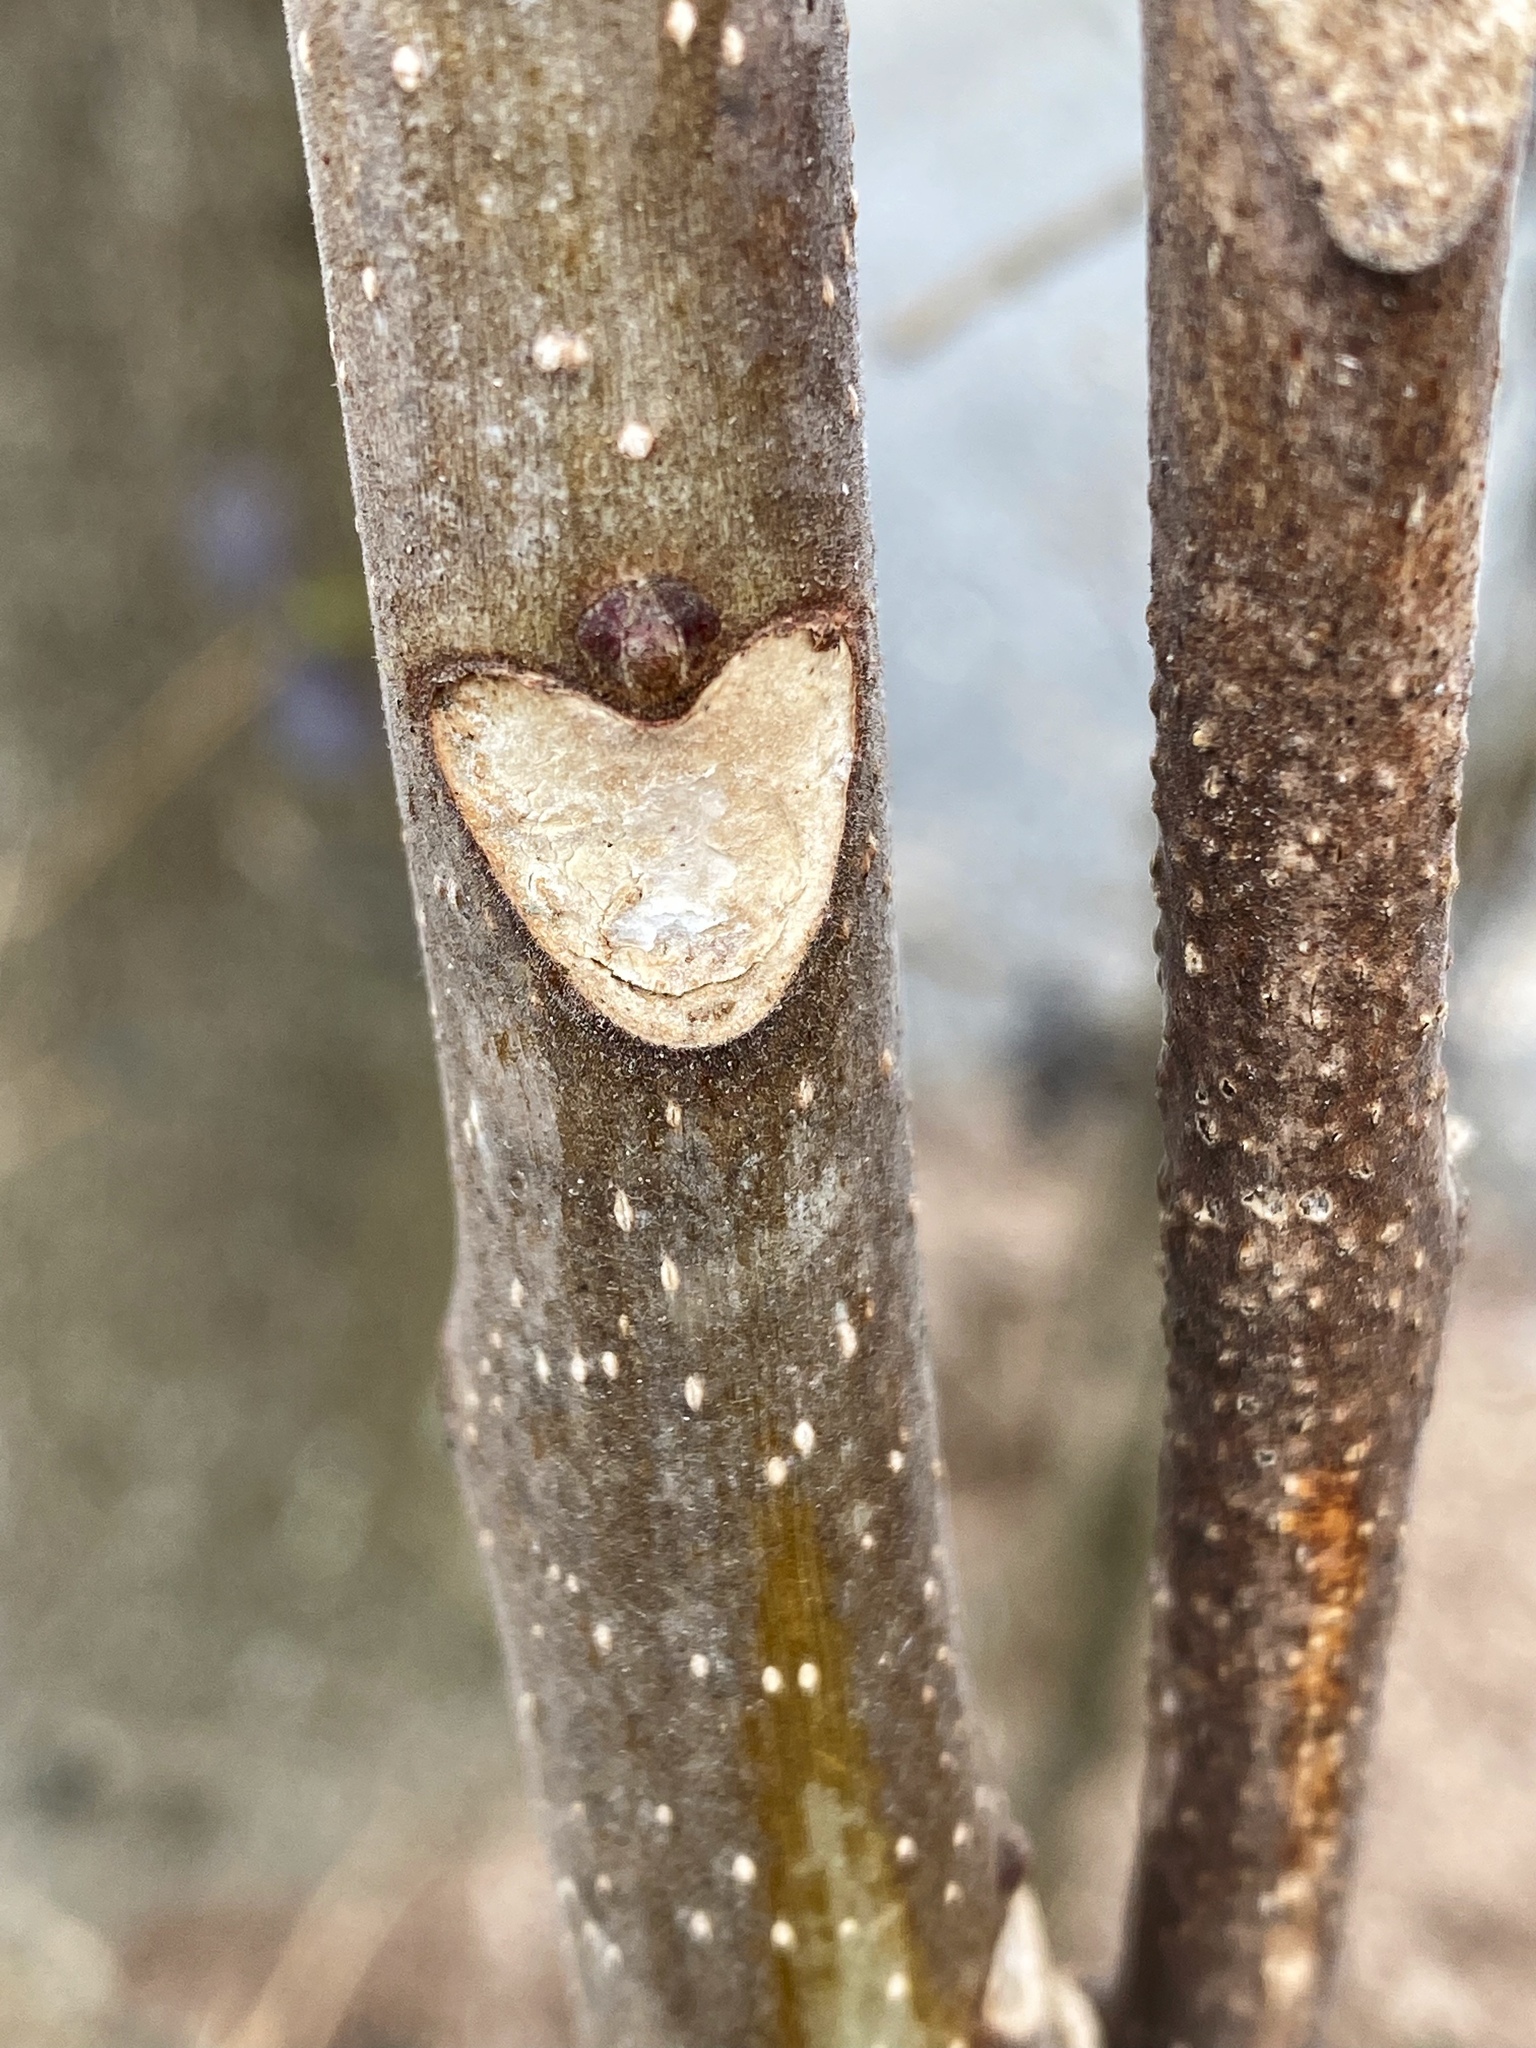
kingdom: Plantae
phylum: Tracheophyta
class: Magnoliopsida
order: Sapindales
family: Simaroubaceae
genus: Ailanthus
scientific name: Ailanthus altissima
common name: Tree-of-heaven
